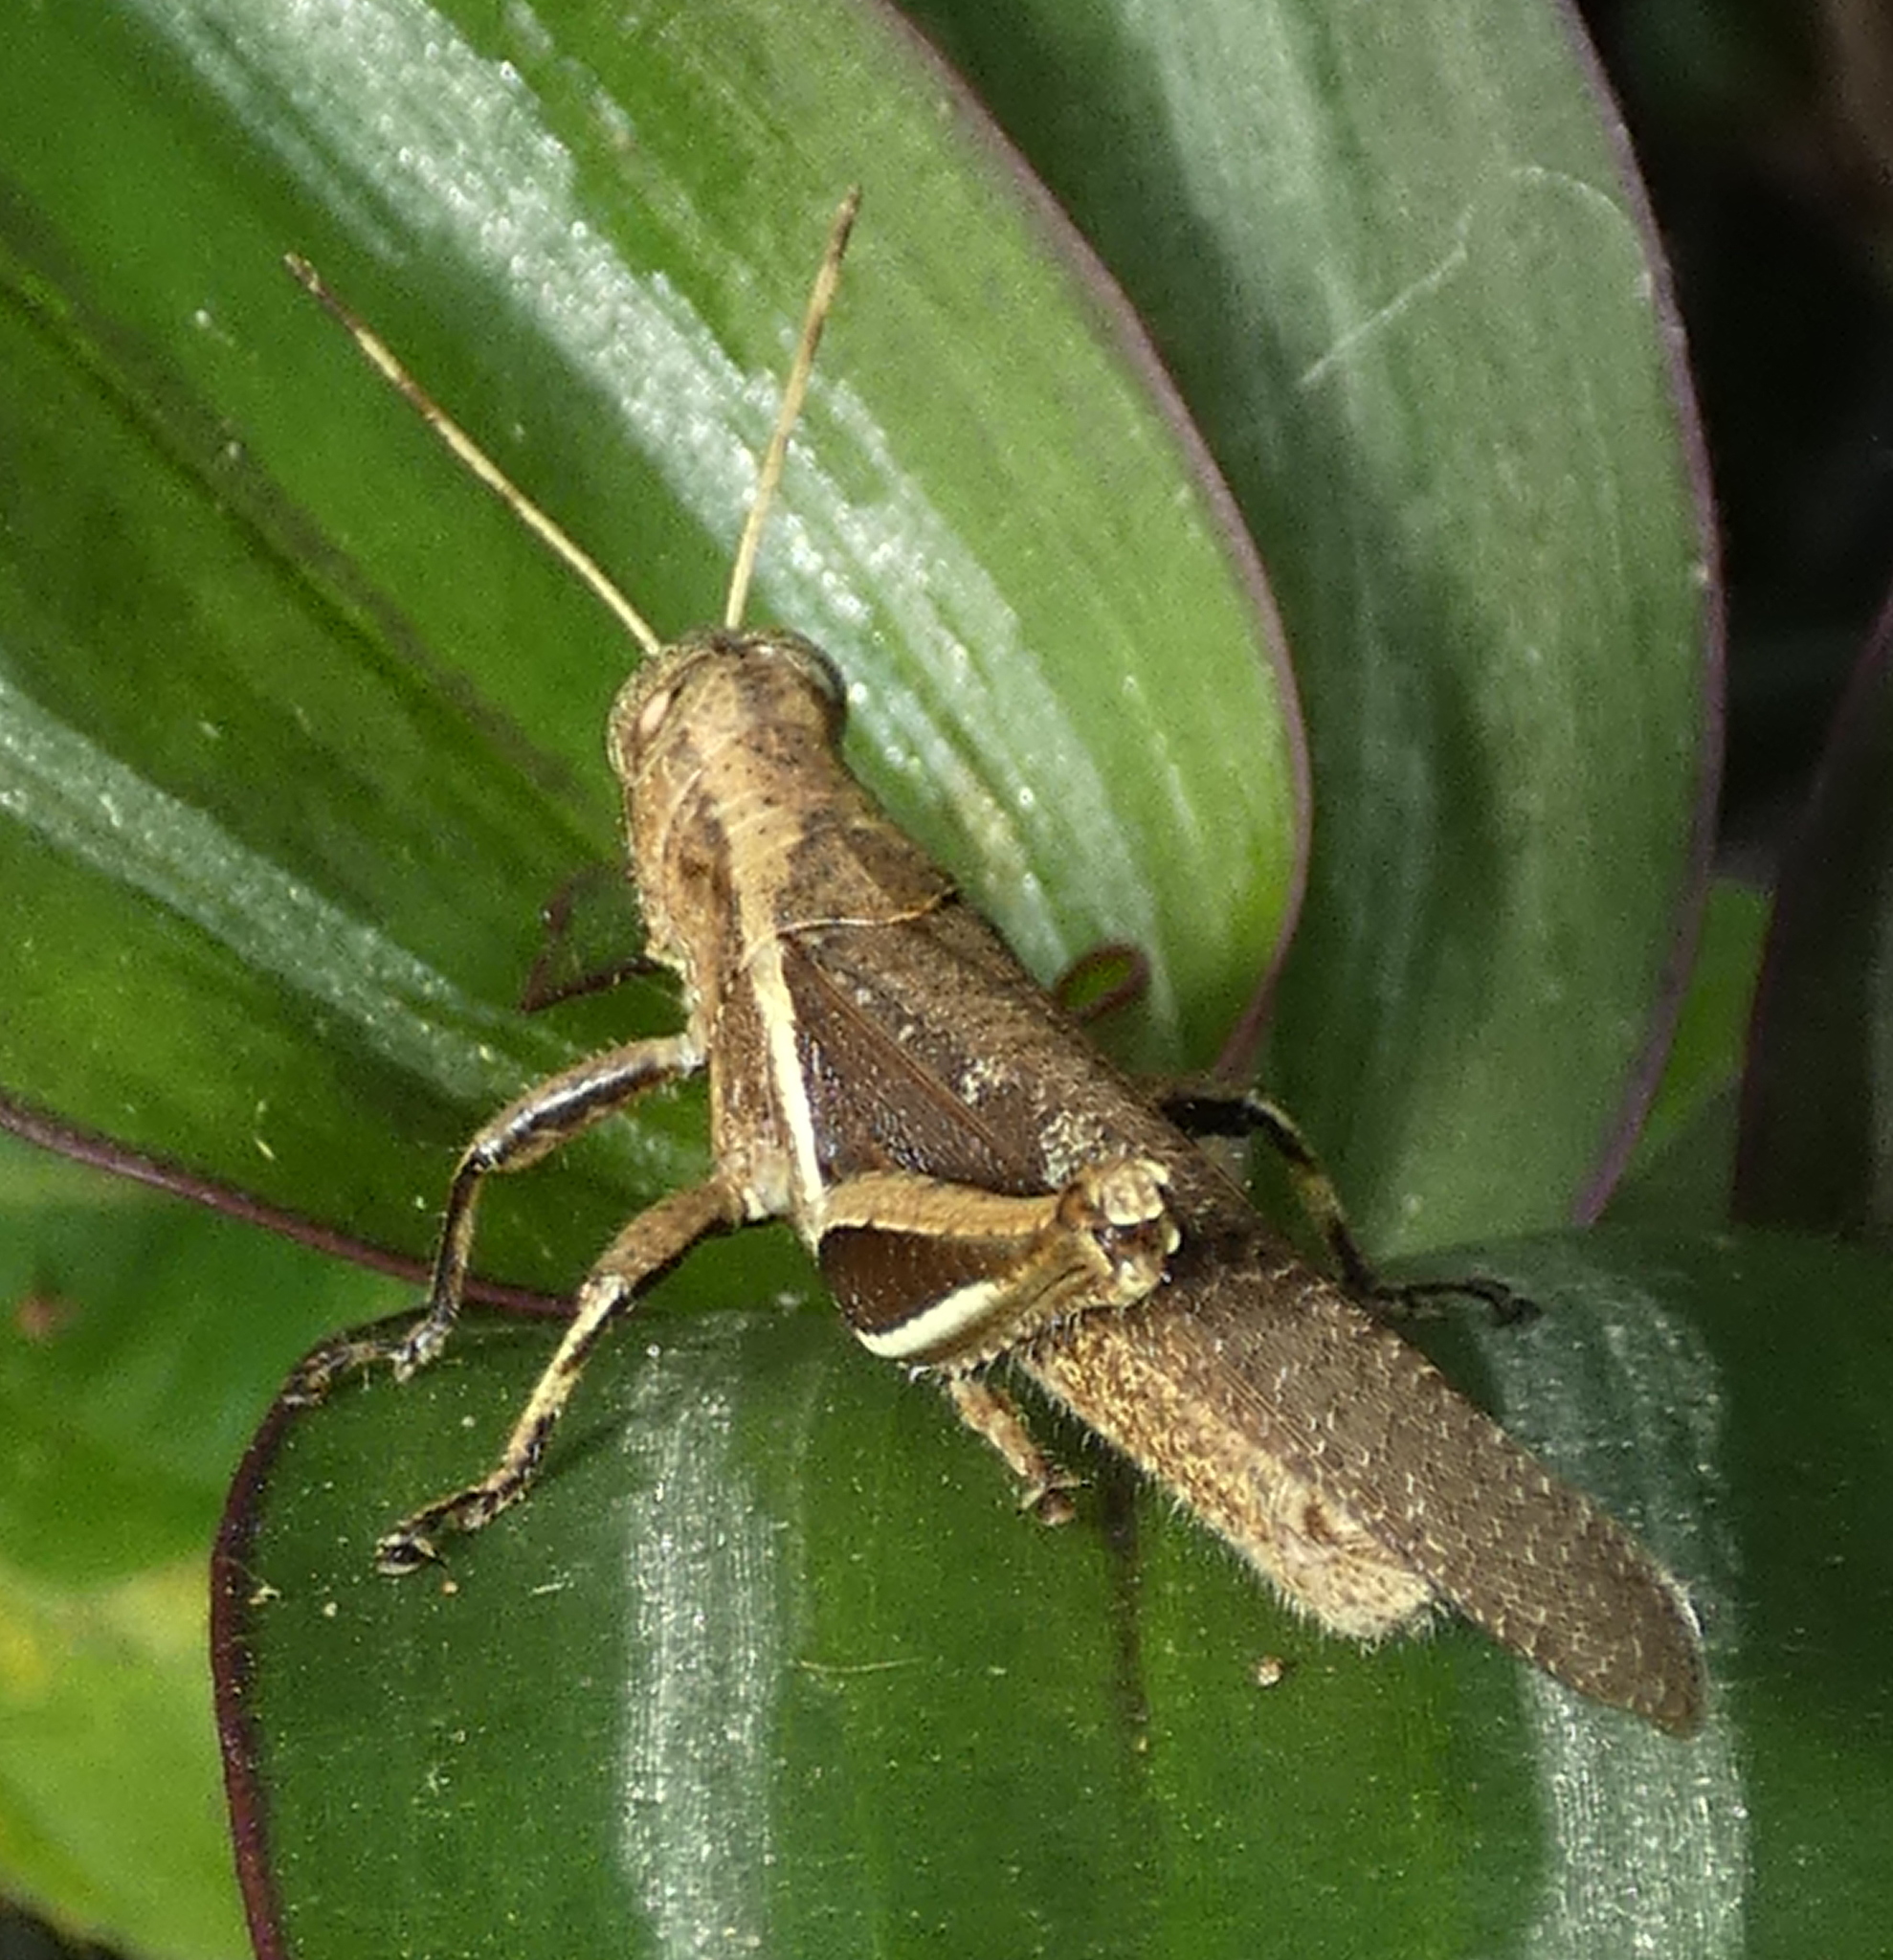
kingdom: Animalia
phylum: Arthropoda
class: Insecta
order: Orthoptera
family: Acrididae
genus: Abracris
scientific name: Abracris flavolineata
